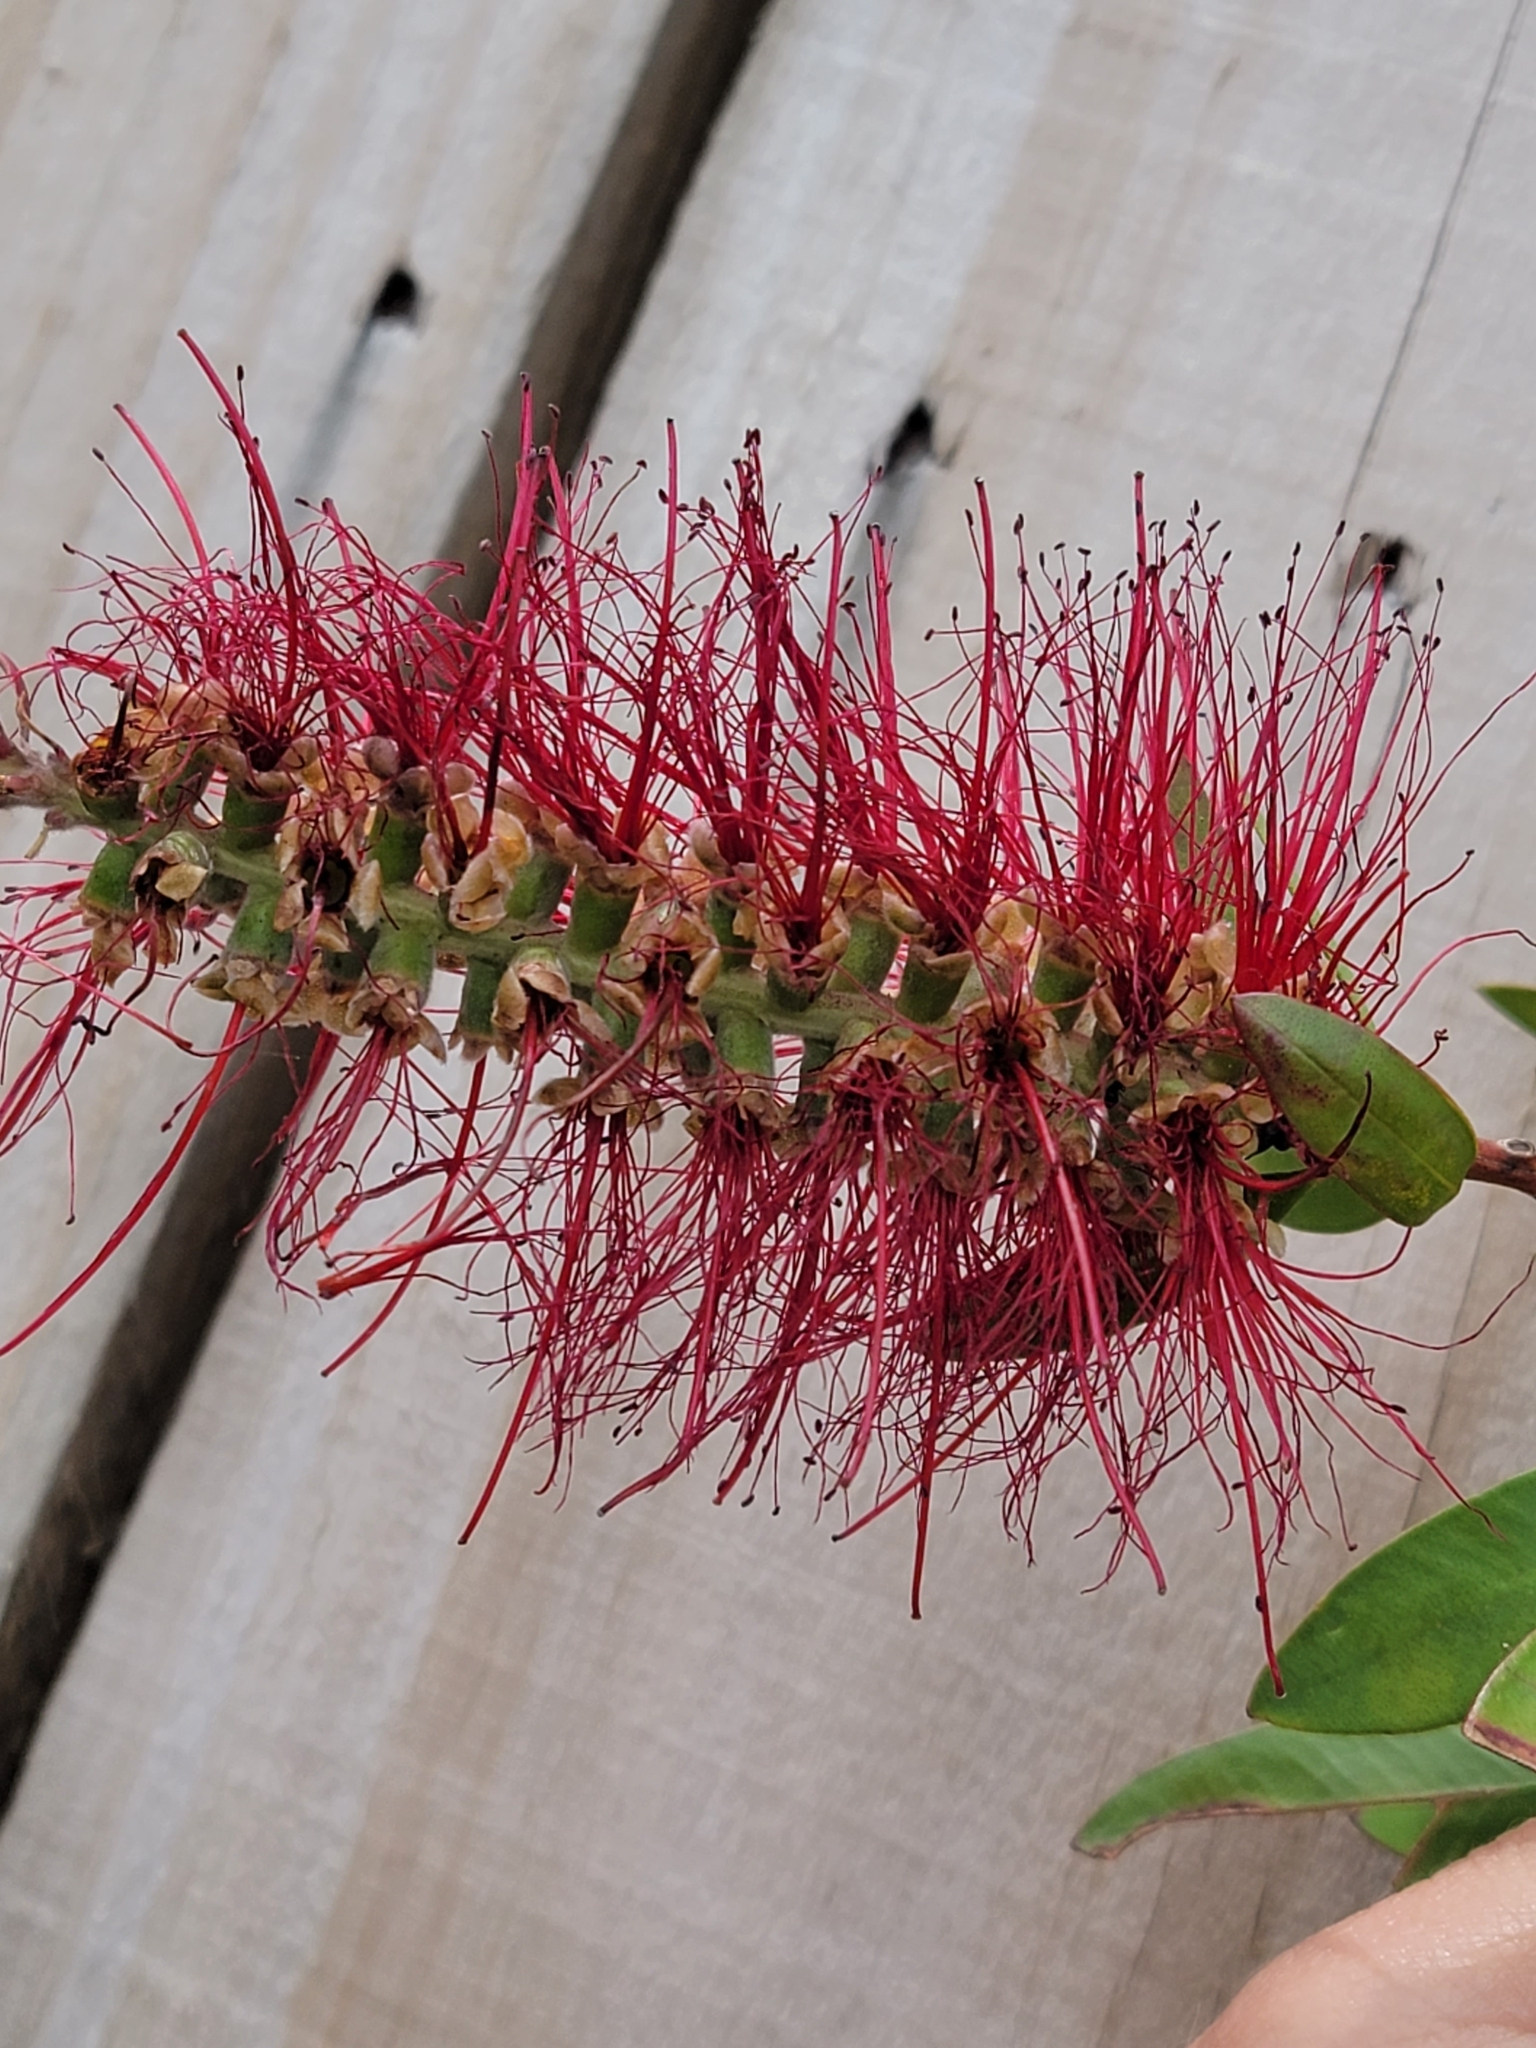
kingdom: Plantae
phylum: Tracheophyta
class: Magnoliopsida
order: Myrtales
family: Myrtaceae
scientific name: Myrtaceae
